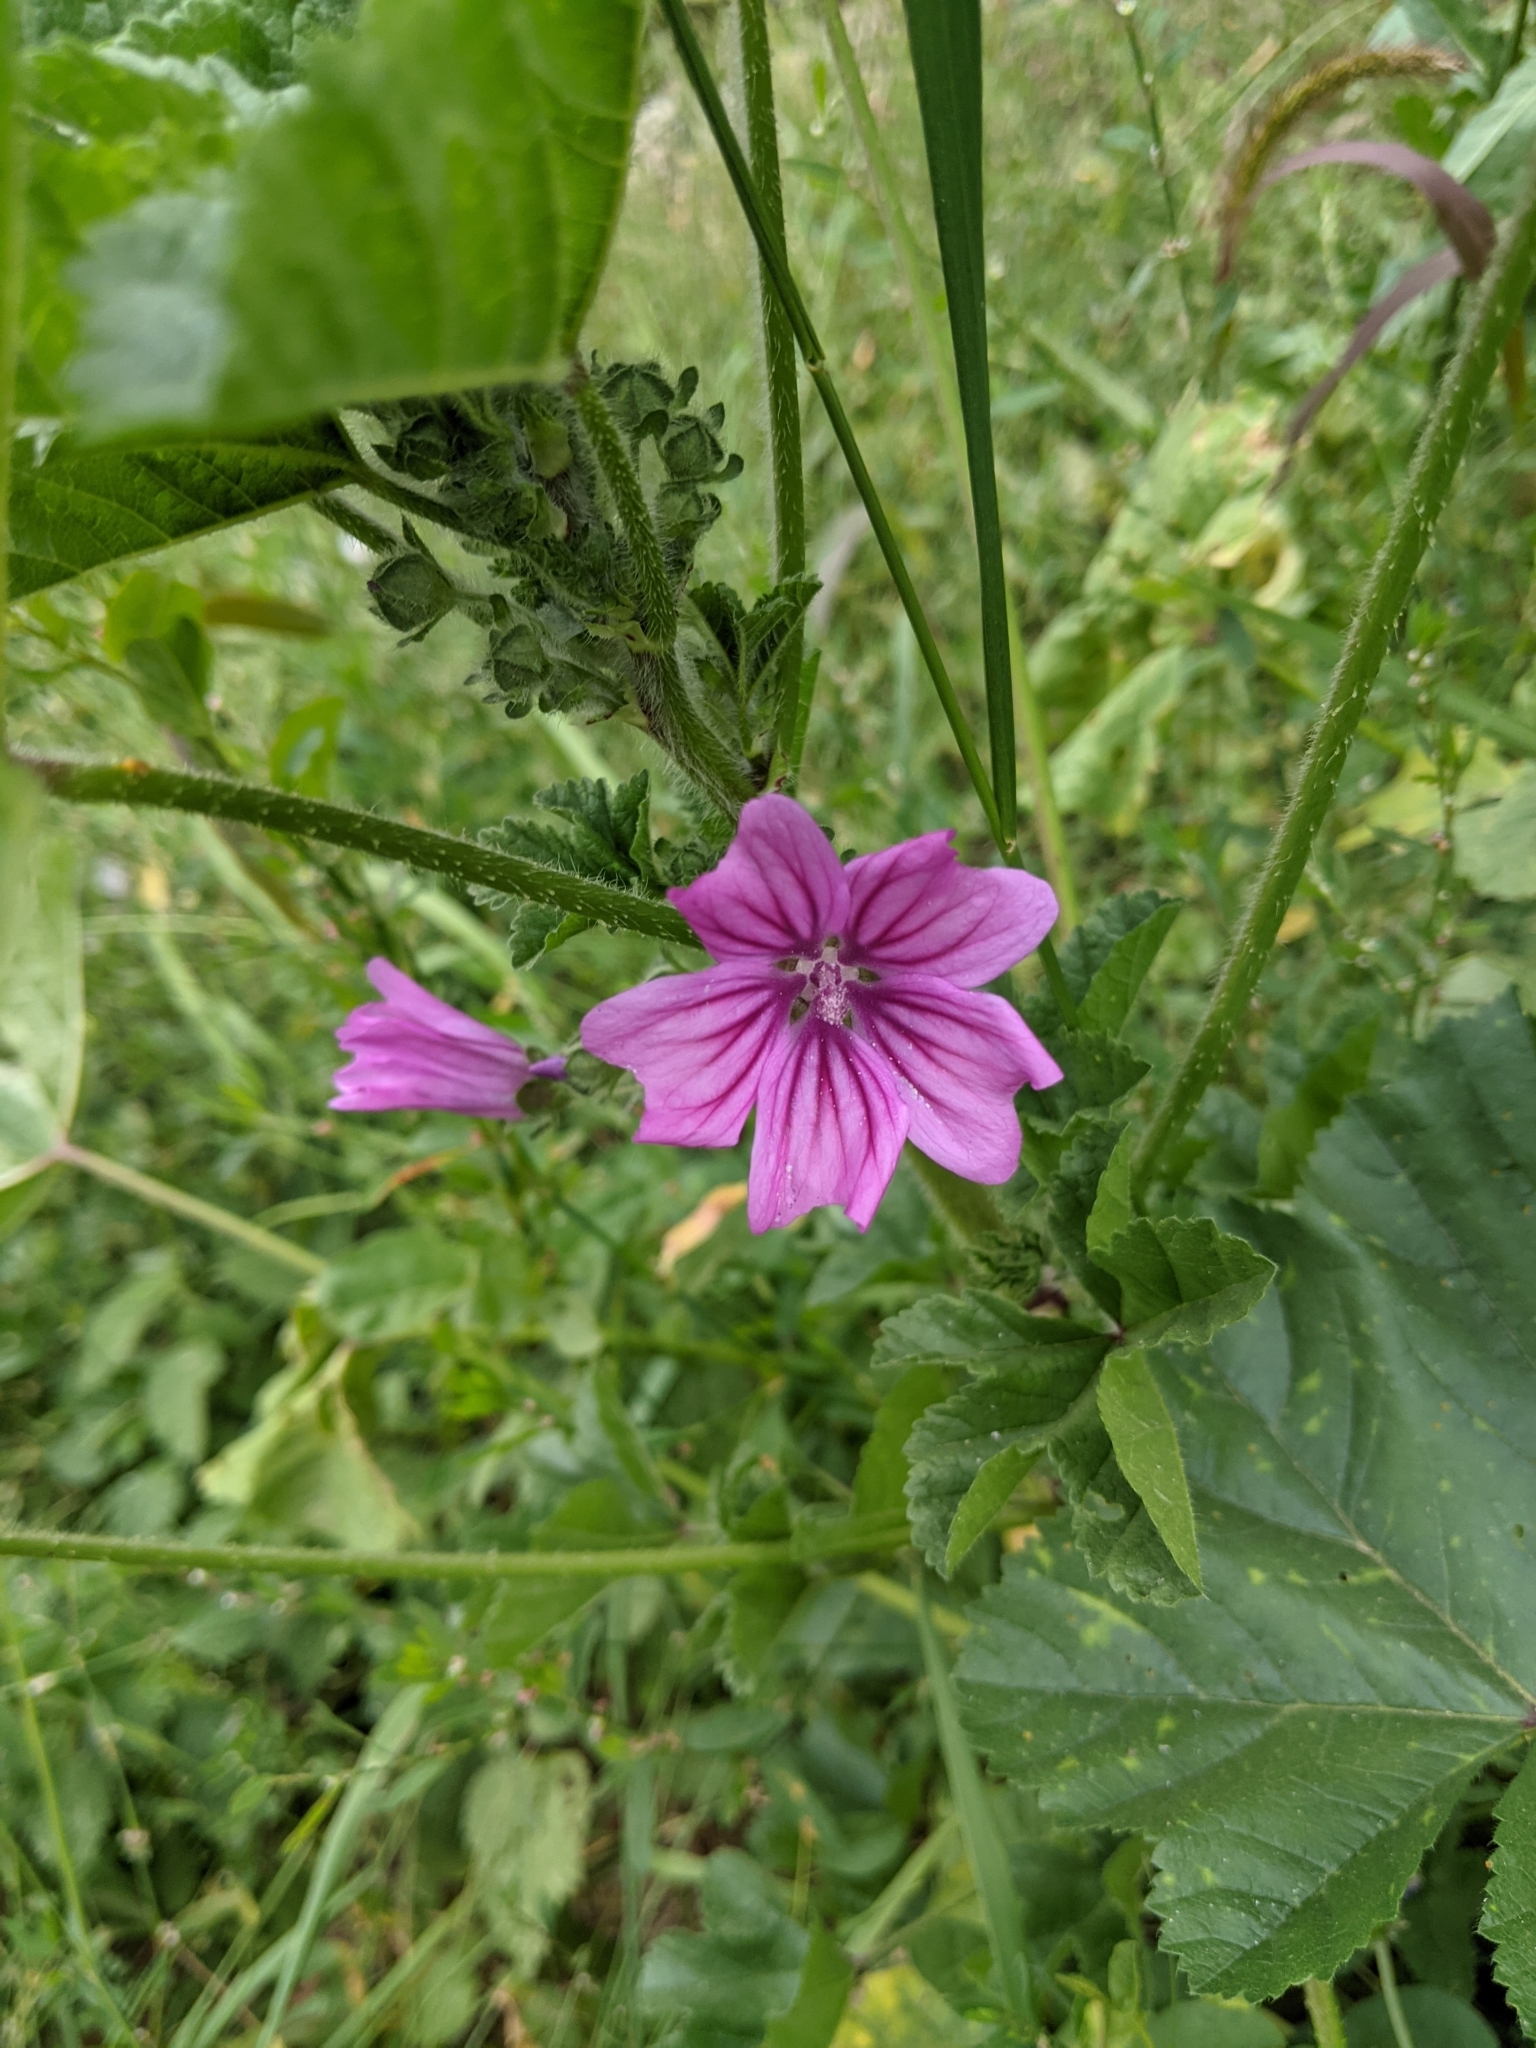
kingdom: Plantae
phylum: Tracheophyta
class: Magnoliopsida
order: Malvales
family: Malvaceae
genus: Malva
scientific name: Malva sylvestris
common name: Common mallow
